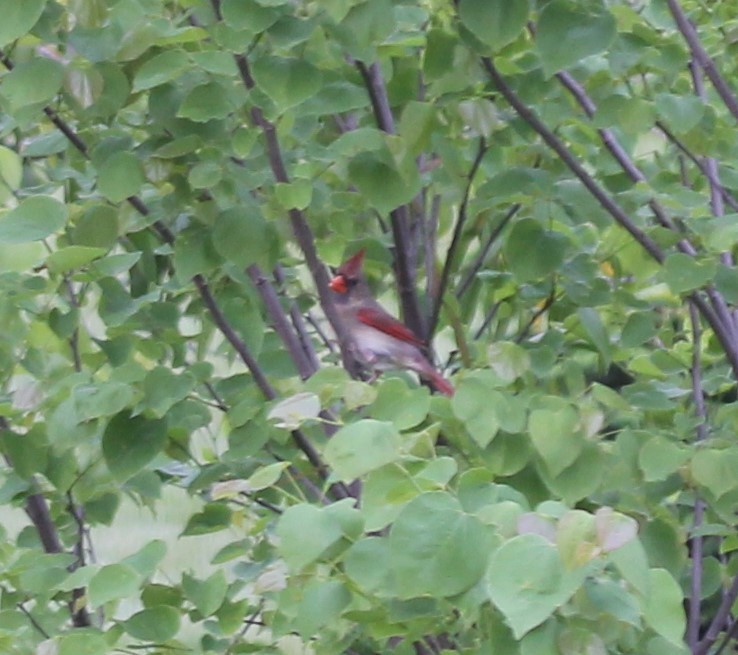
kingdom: Animalia
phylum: Chordata
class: Aves
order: Passeriformes
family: Cardinalidae
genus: Cardinalis
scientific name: Cardinalis cardinalis
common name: Northern cardinal
